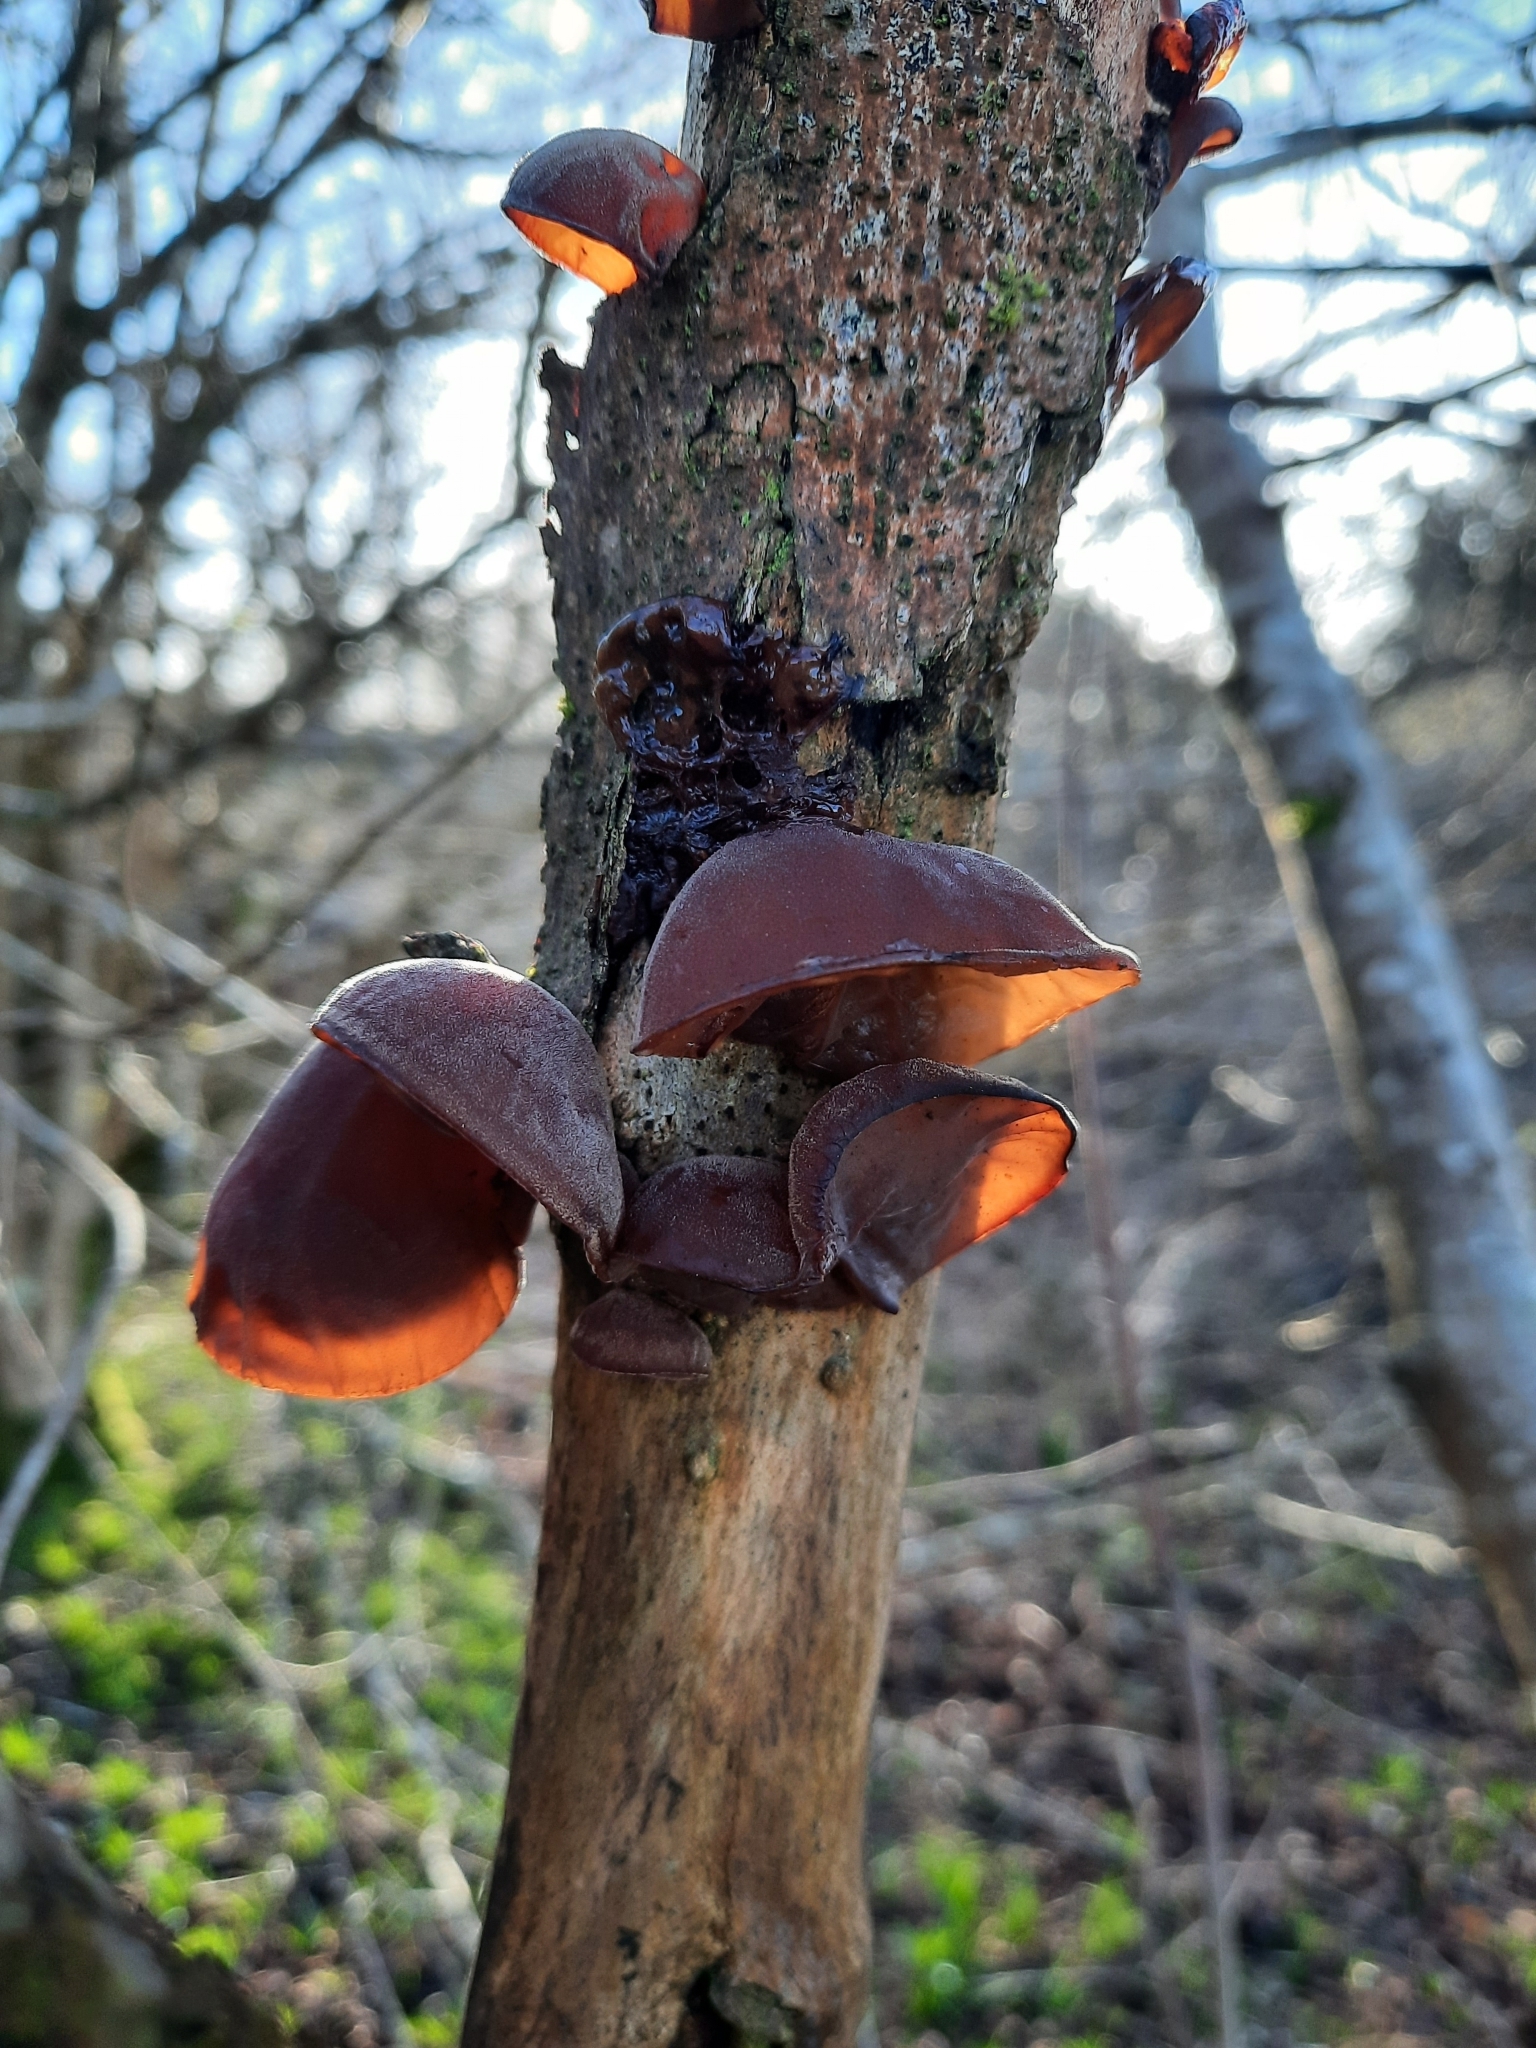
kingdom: Fungi
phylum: Basidiomycota
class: Agaricomycetes
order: Auriculariales
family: Auriculariaceae
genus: Auricularia
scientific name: Auricularia auricula-judae
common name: Jelly ear
